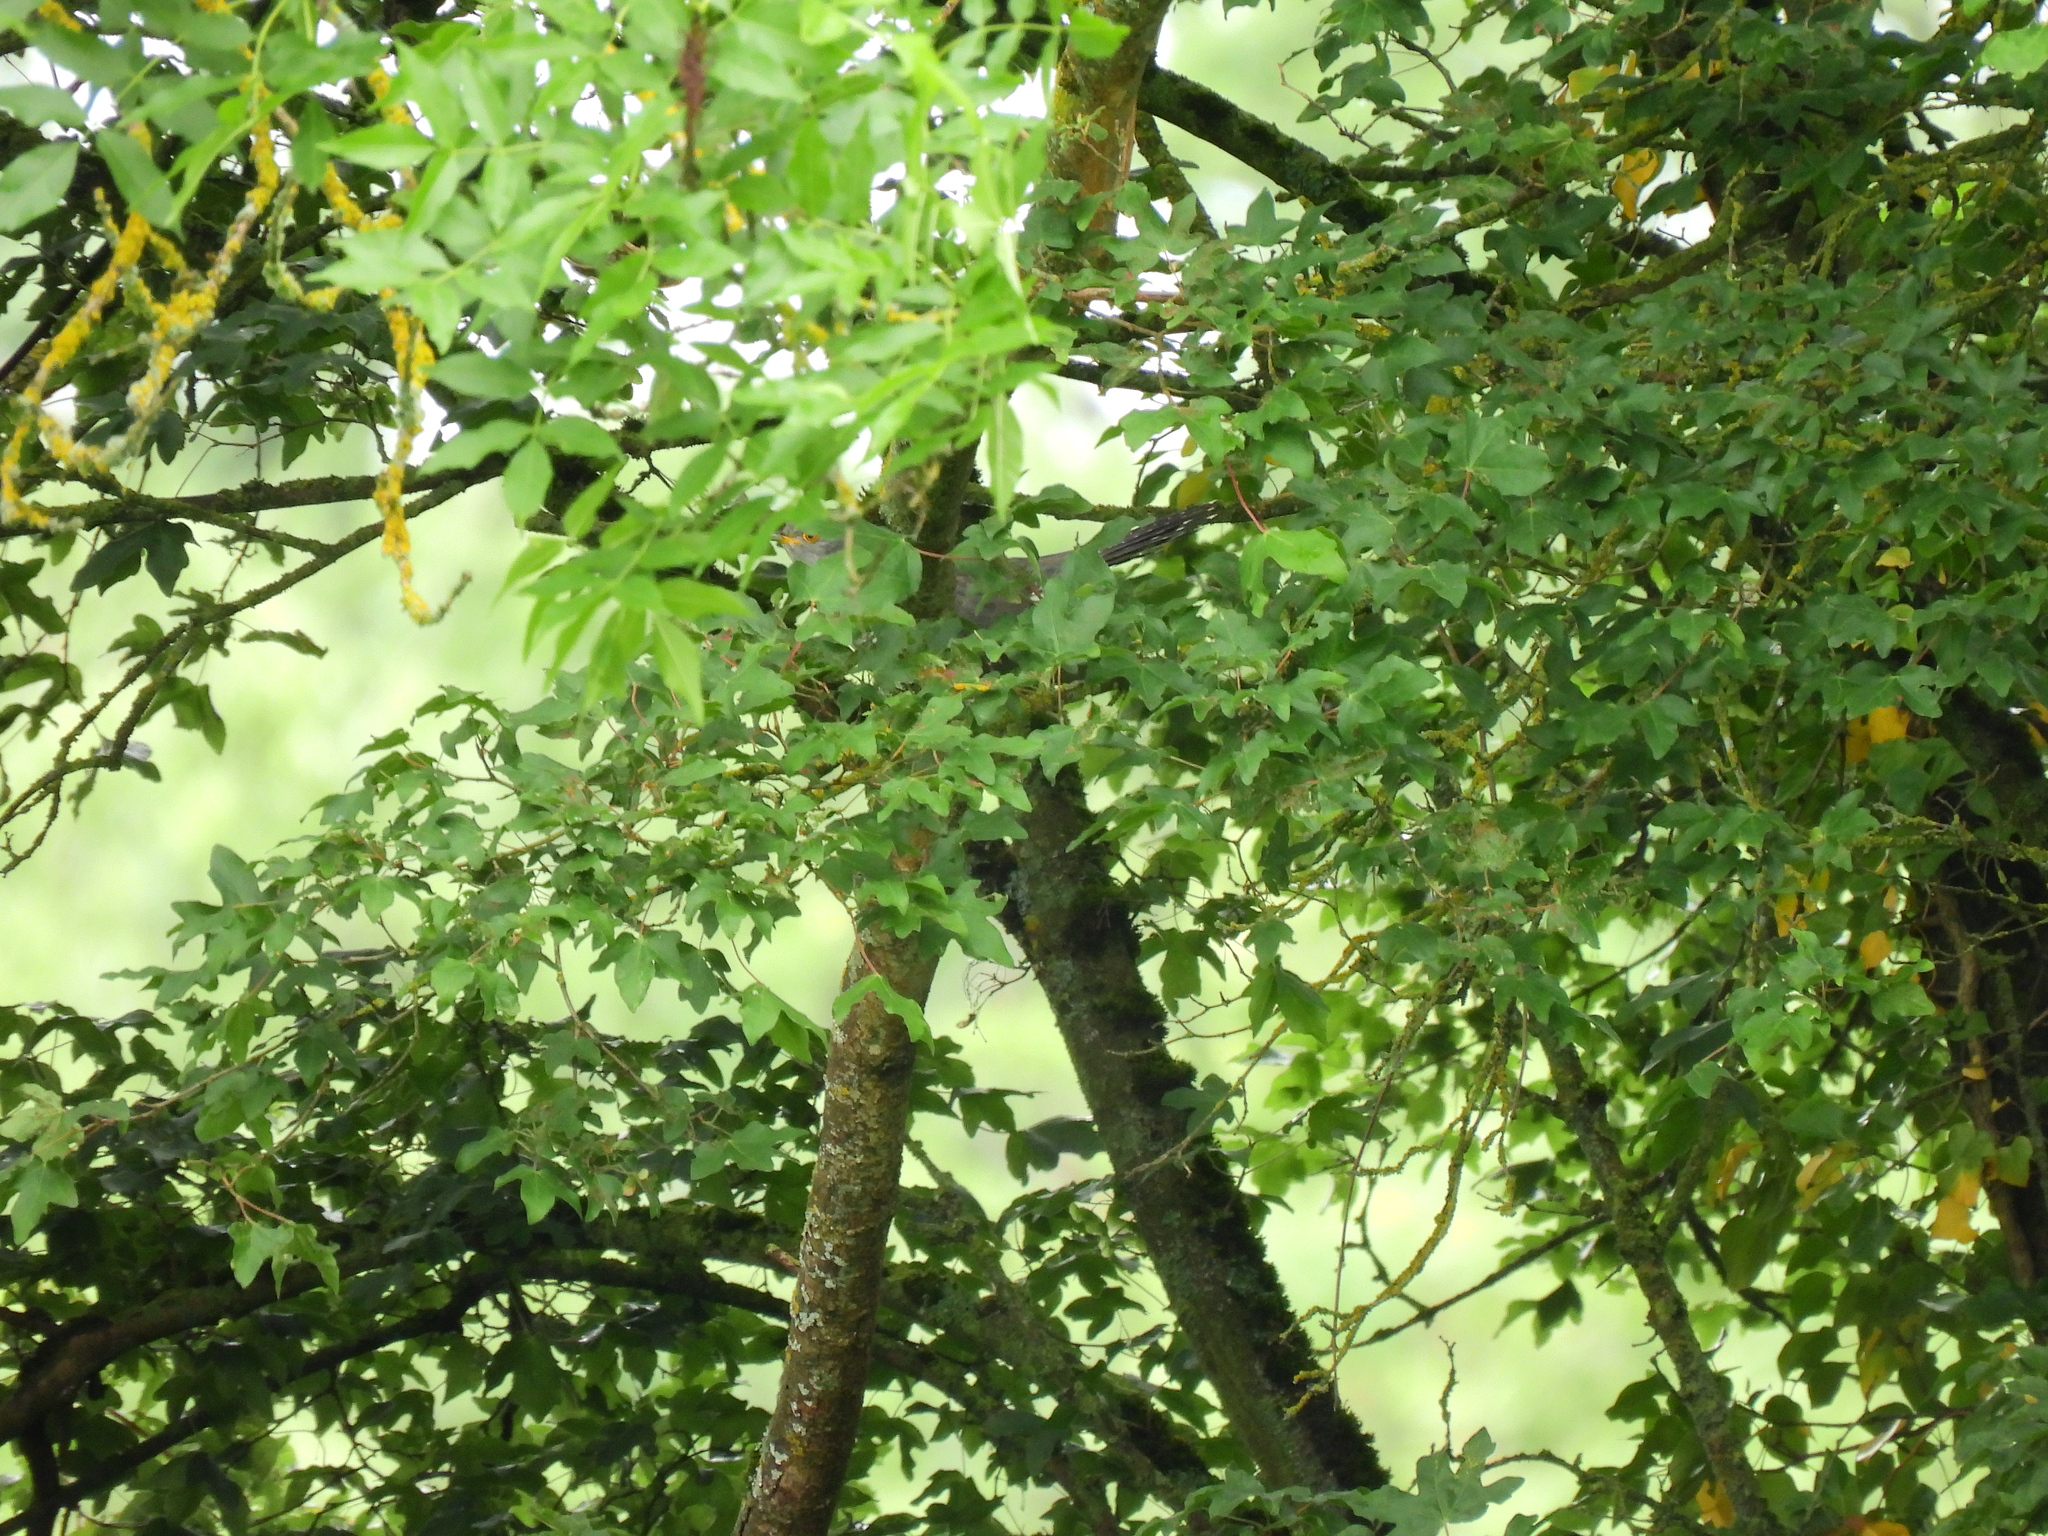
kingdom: Animalia
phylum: Chordata
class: Aves
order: Cuculiformes
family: Cuculidae
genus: Cuculus
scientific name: Cuculus canorus
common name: Common cuckoo
